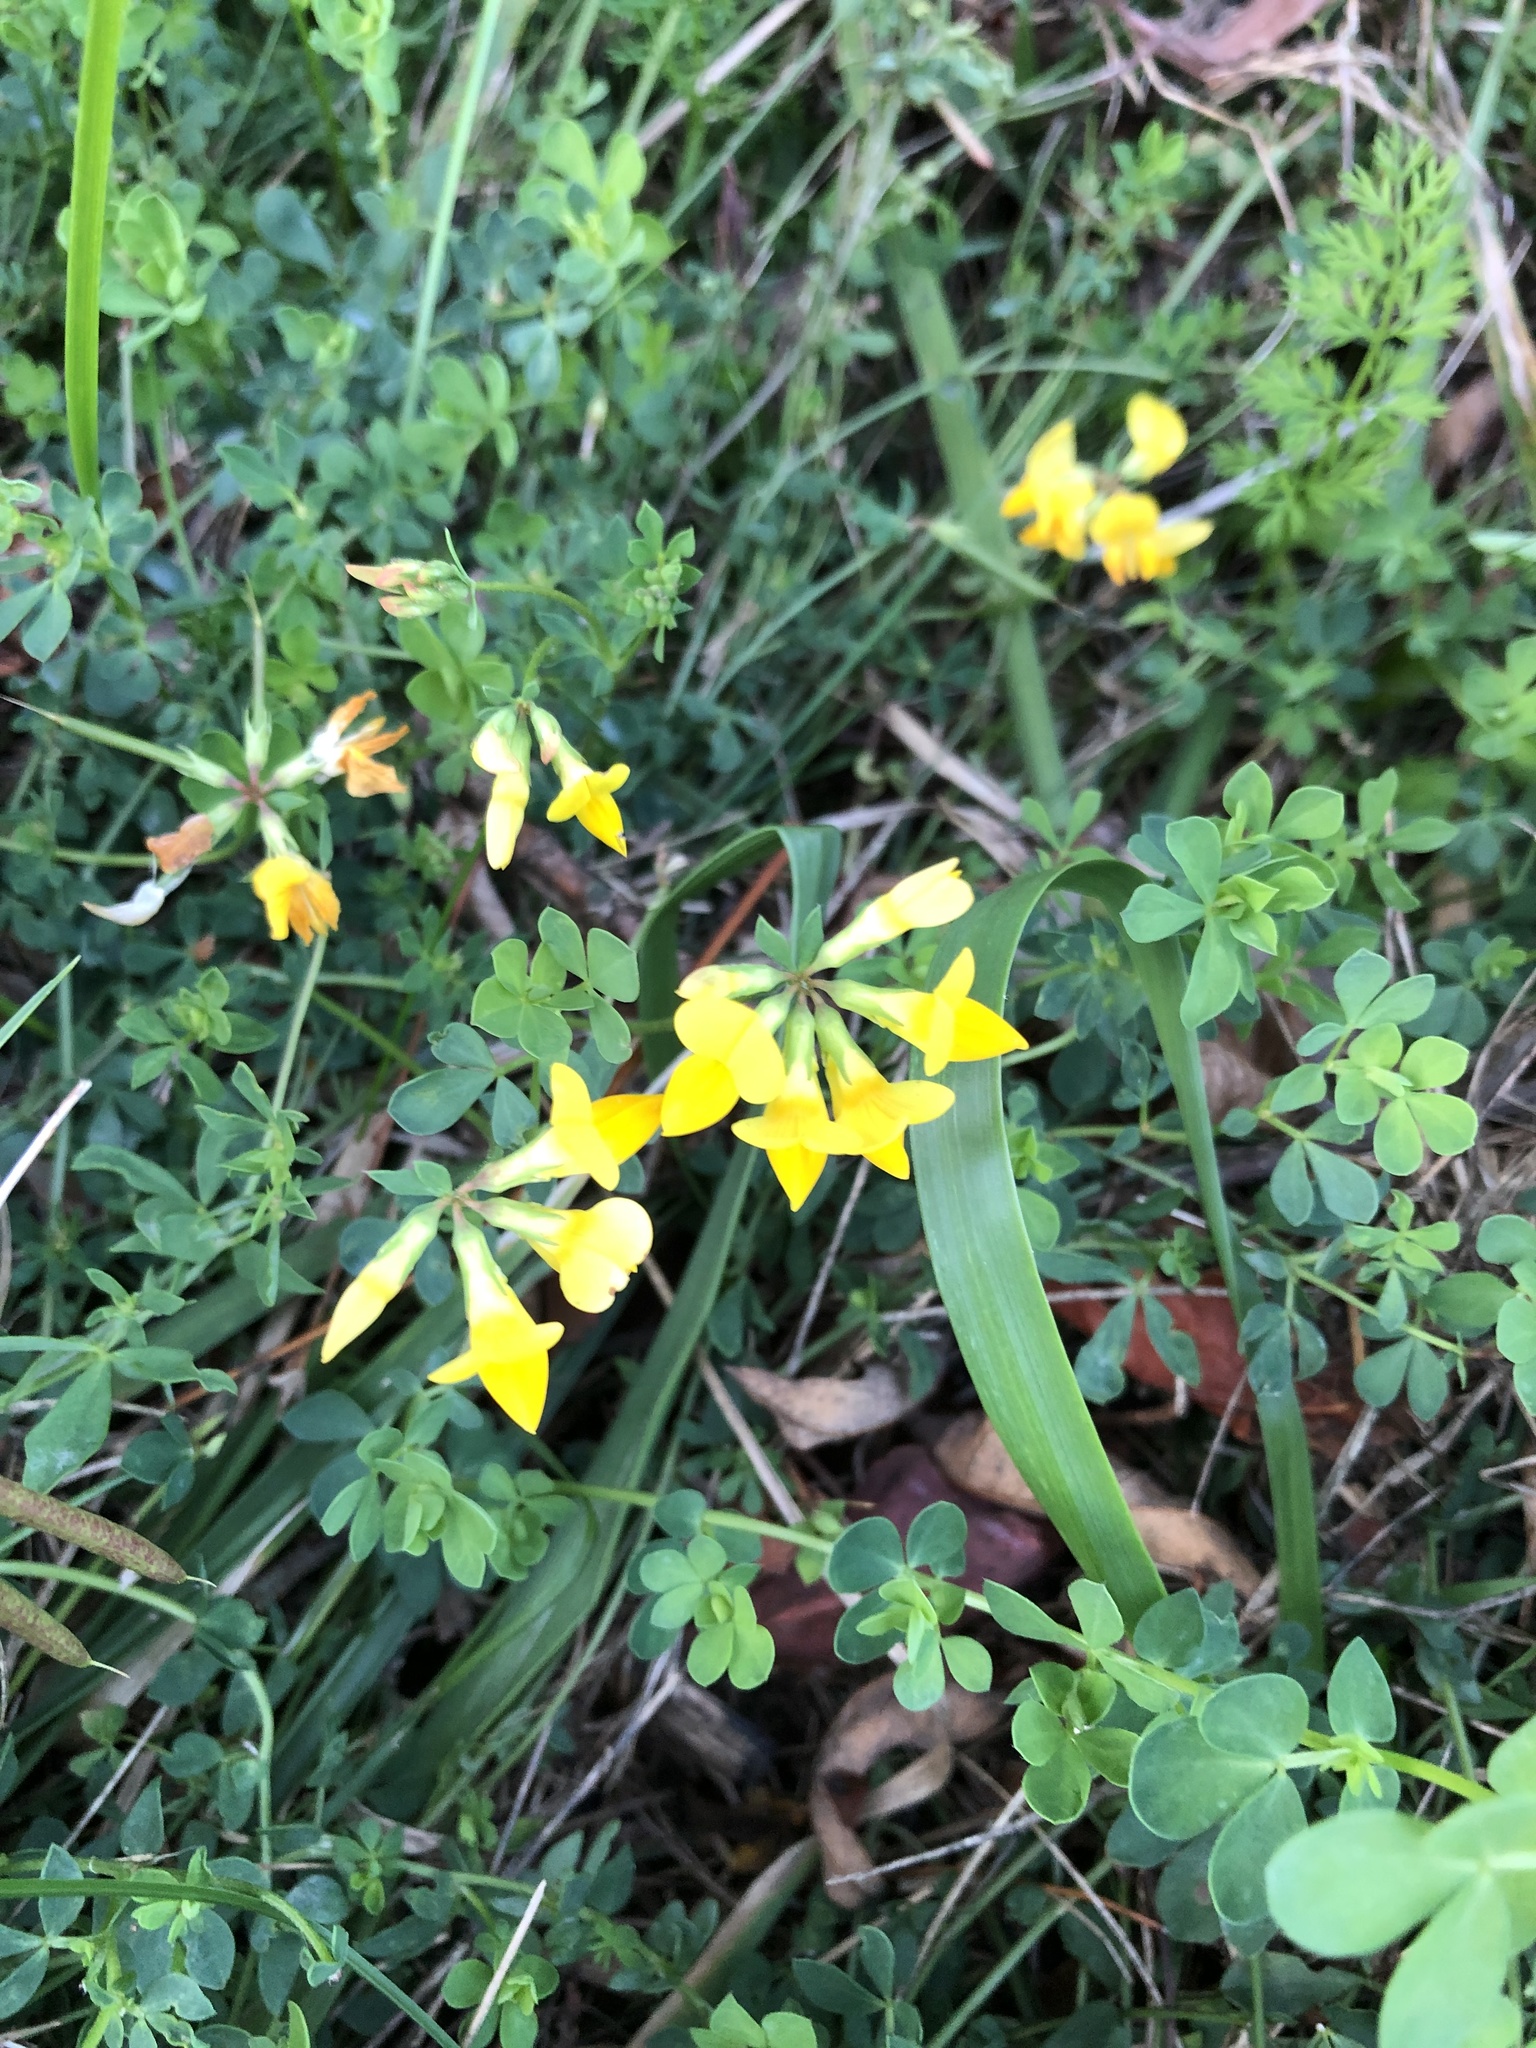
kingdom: Plantae
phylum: Tracheophyta
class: Magnoliopsida
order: Fabales
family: Fabaceae
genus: Lotus
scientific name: Lotus corniculatus
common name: Common bird's-foot-trefoil
